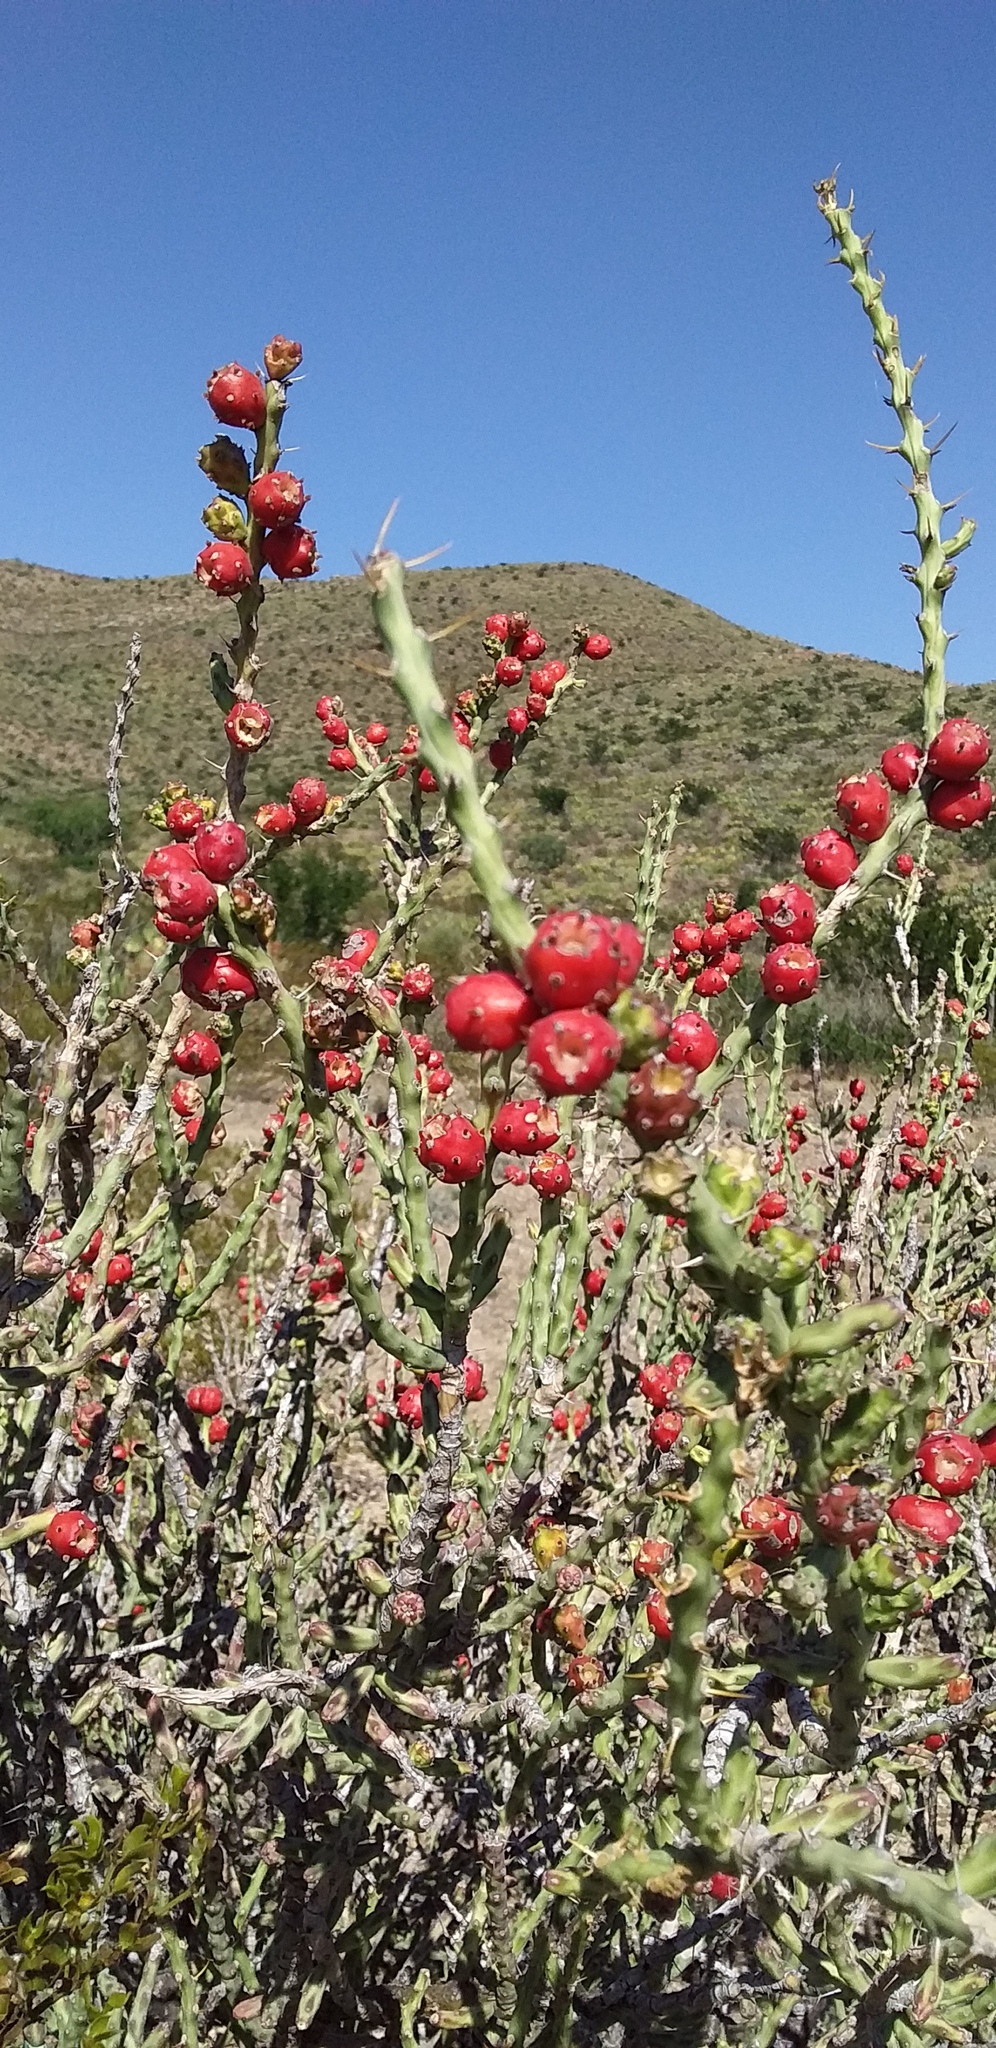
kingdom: Plantae
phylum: Tracheophyta
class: Magnoliopsida
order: Caryophyllales
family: Cactaceae
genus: Cylindropuntia
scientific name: Cylindropuntia leptocaulis
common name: Christmas cactus
